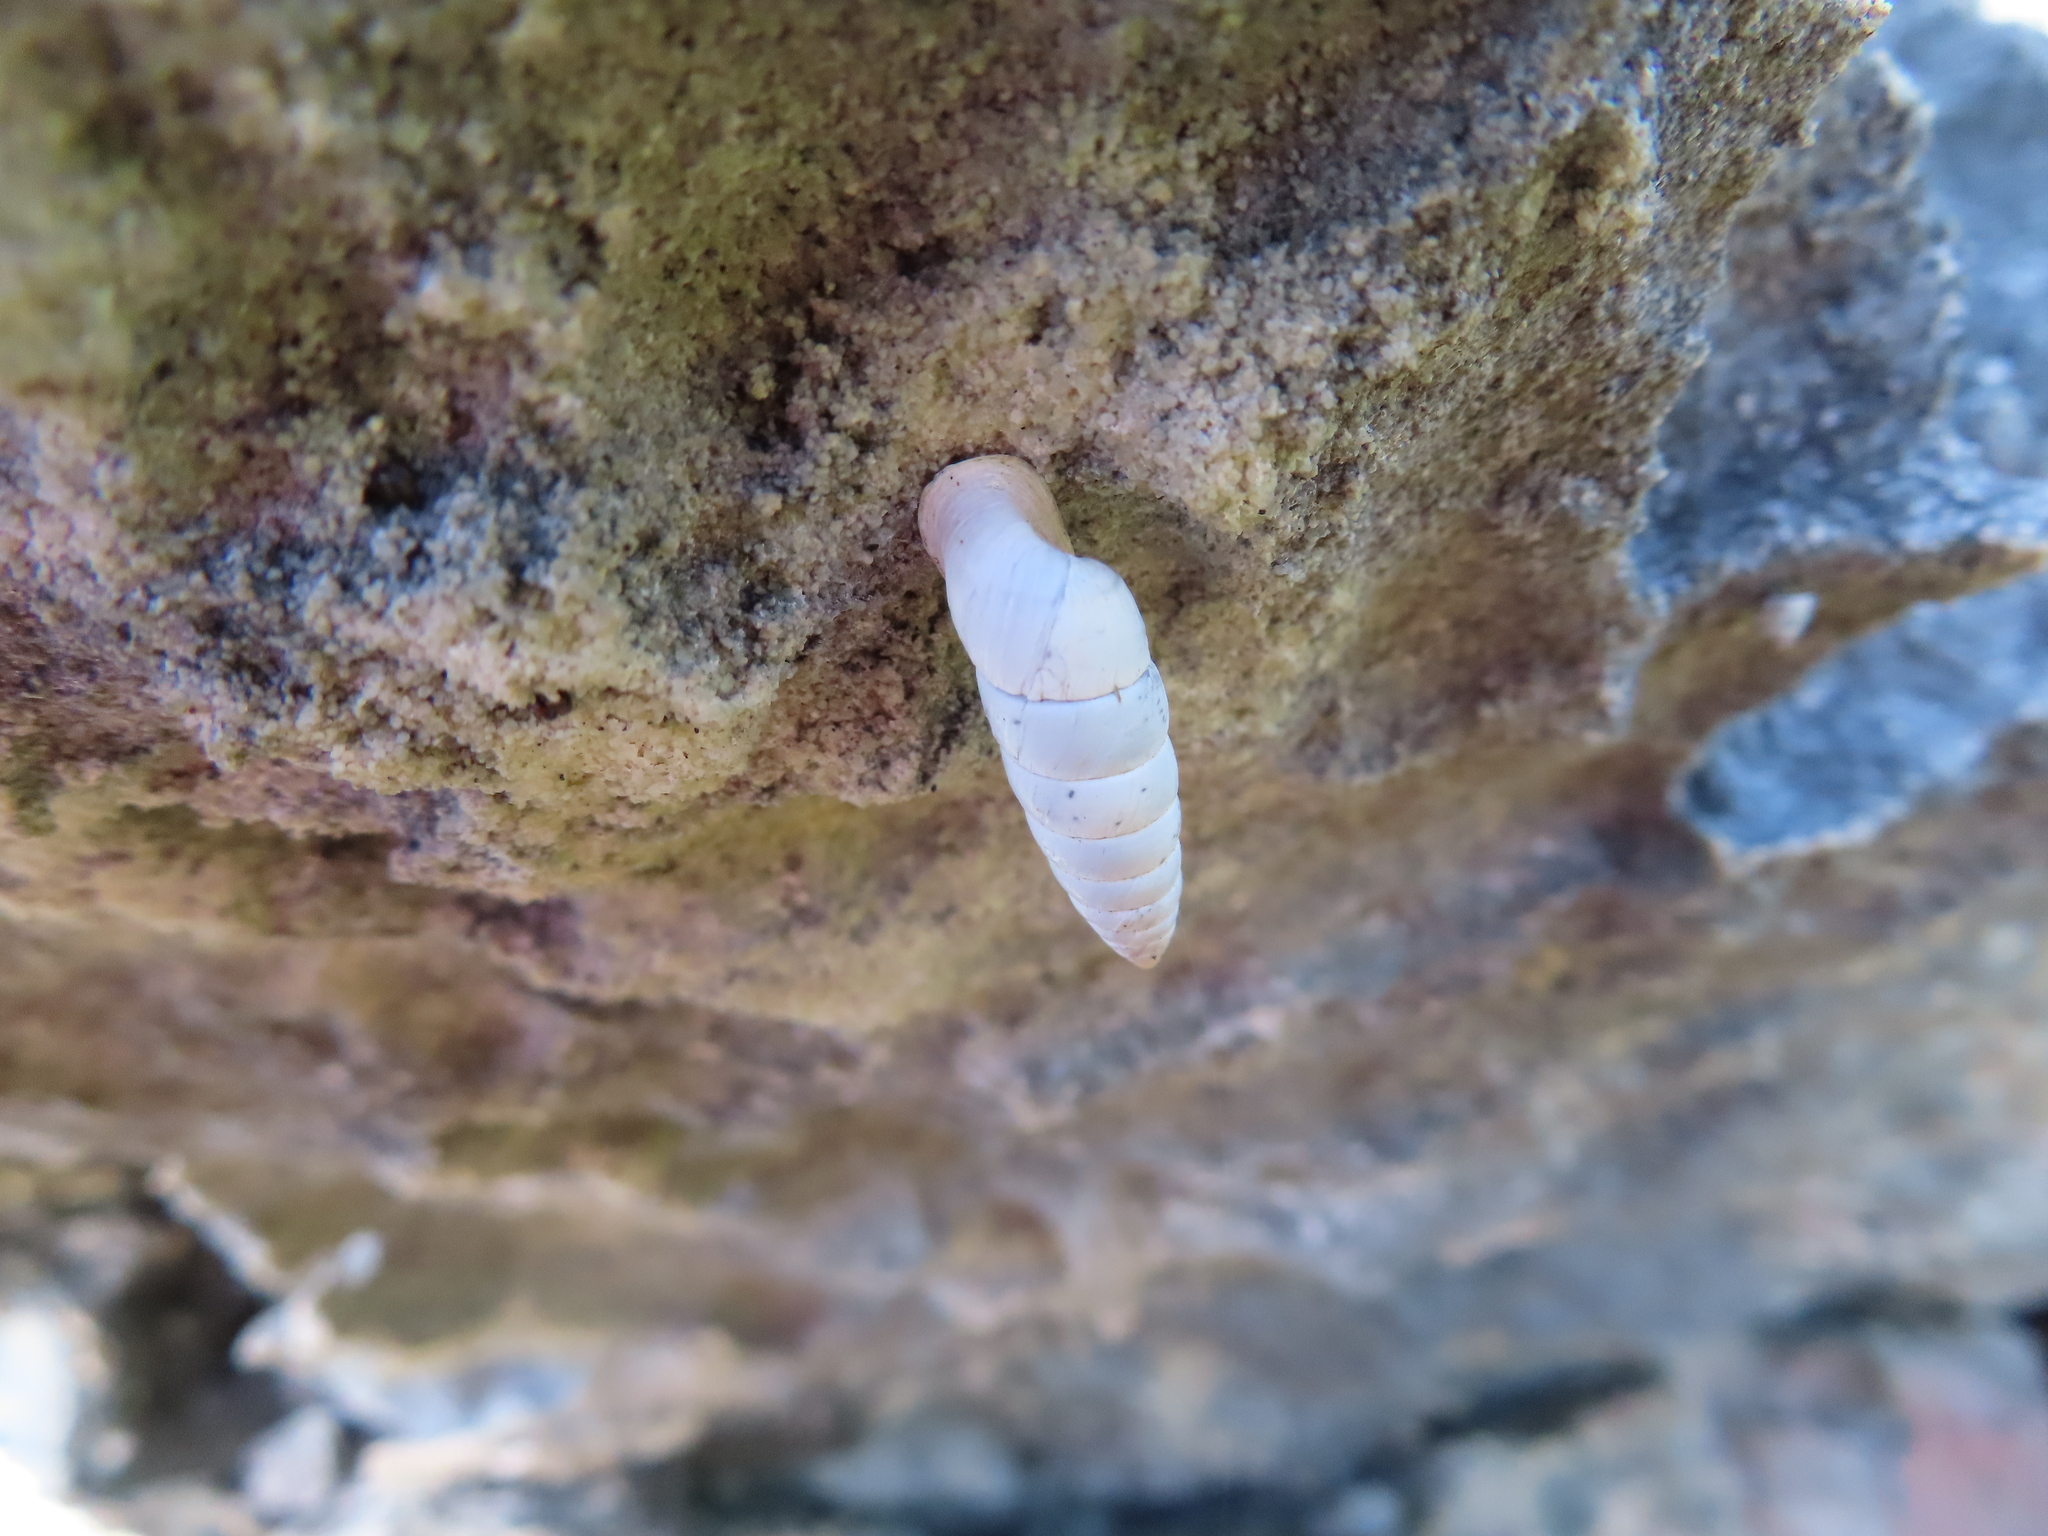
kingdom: Animalia
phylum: Mollusca
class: Gastropoda
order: Stylommatophora
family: Fauxulidae
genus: Fauxulus
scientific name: Fauxulus capensis
